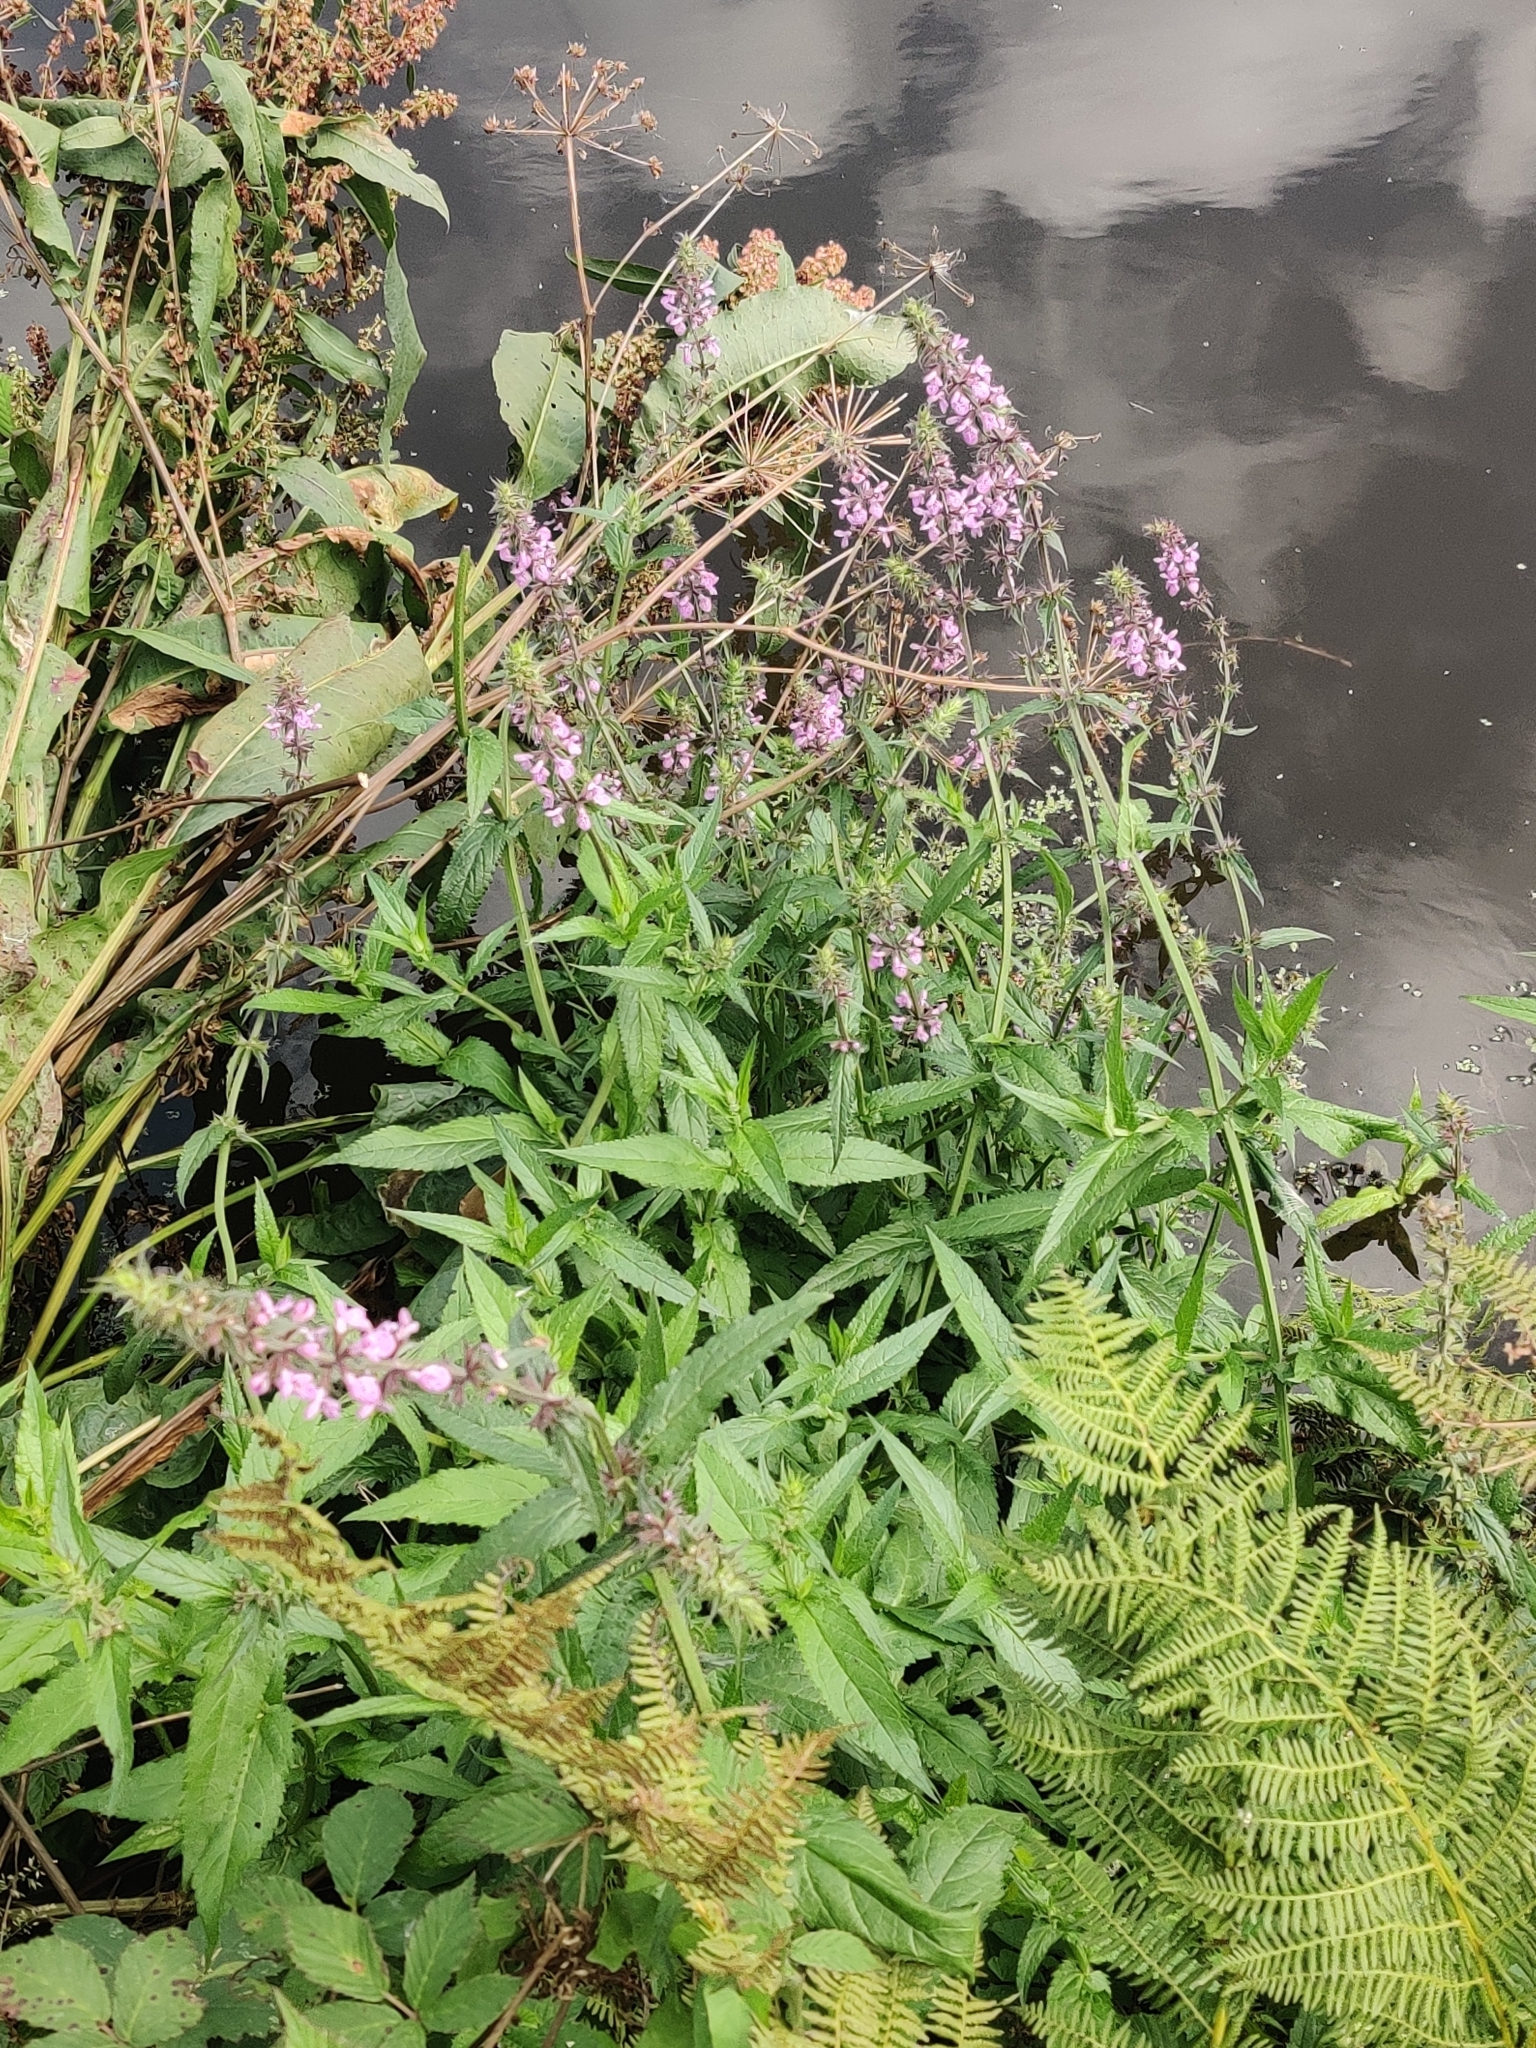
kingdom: Plantae
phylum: Tracheophyta
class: Magnoliopsida
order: Lamiales
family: Lamiaceae
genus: Stachys
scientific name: Stachys palustris
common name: Marsh woundwort
